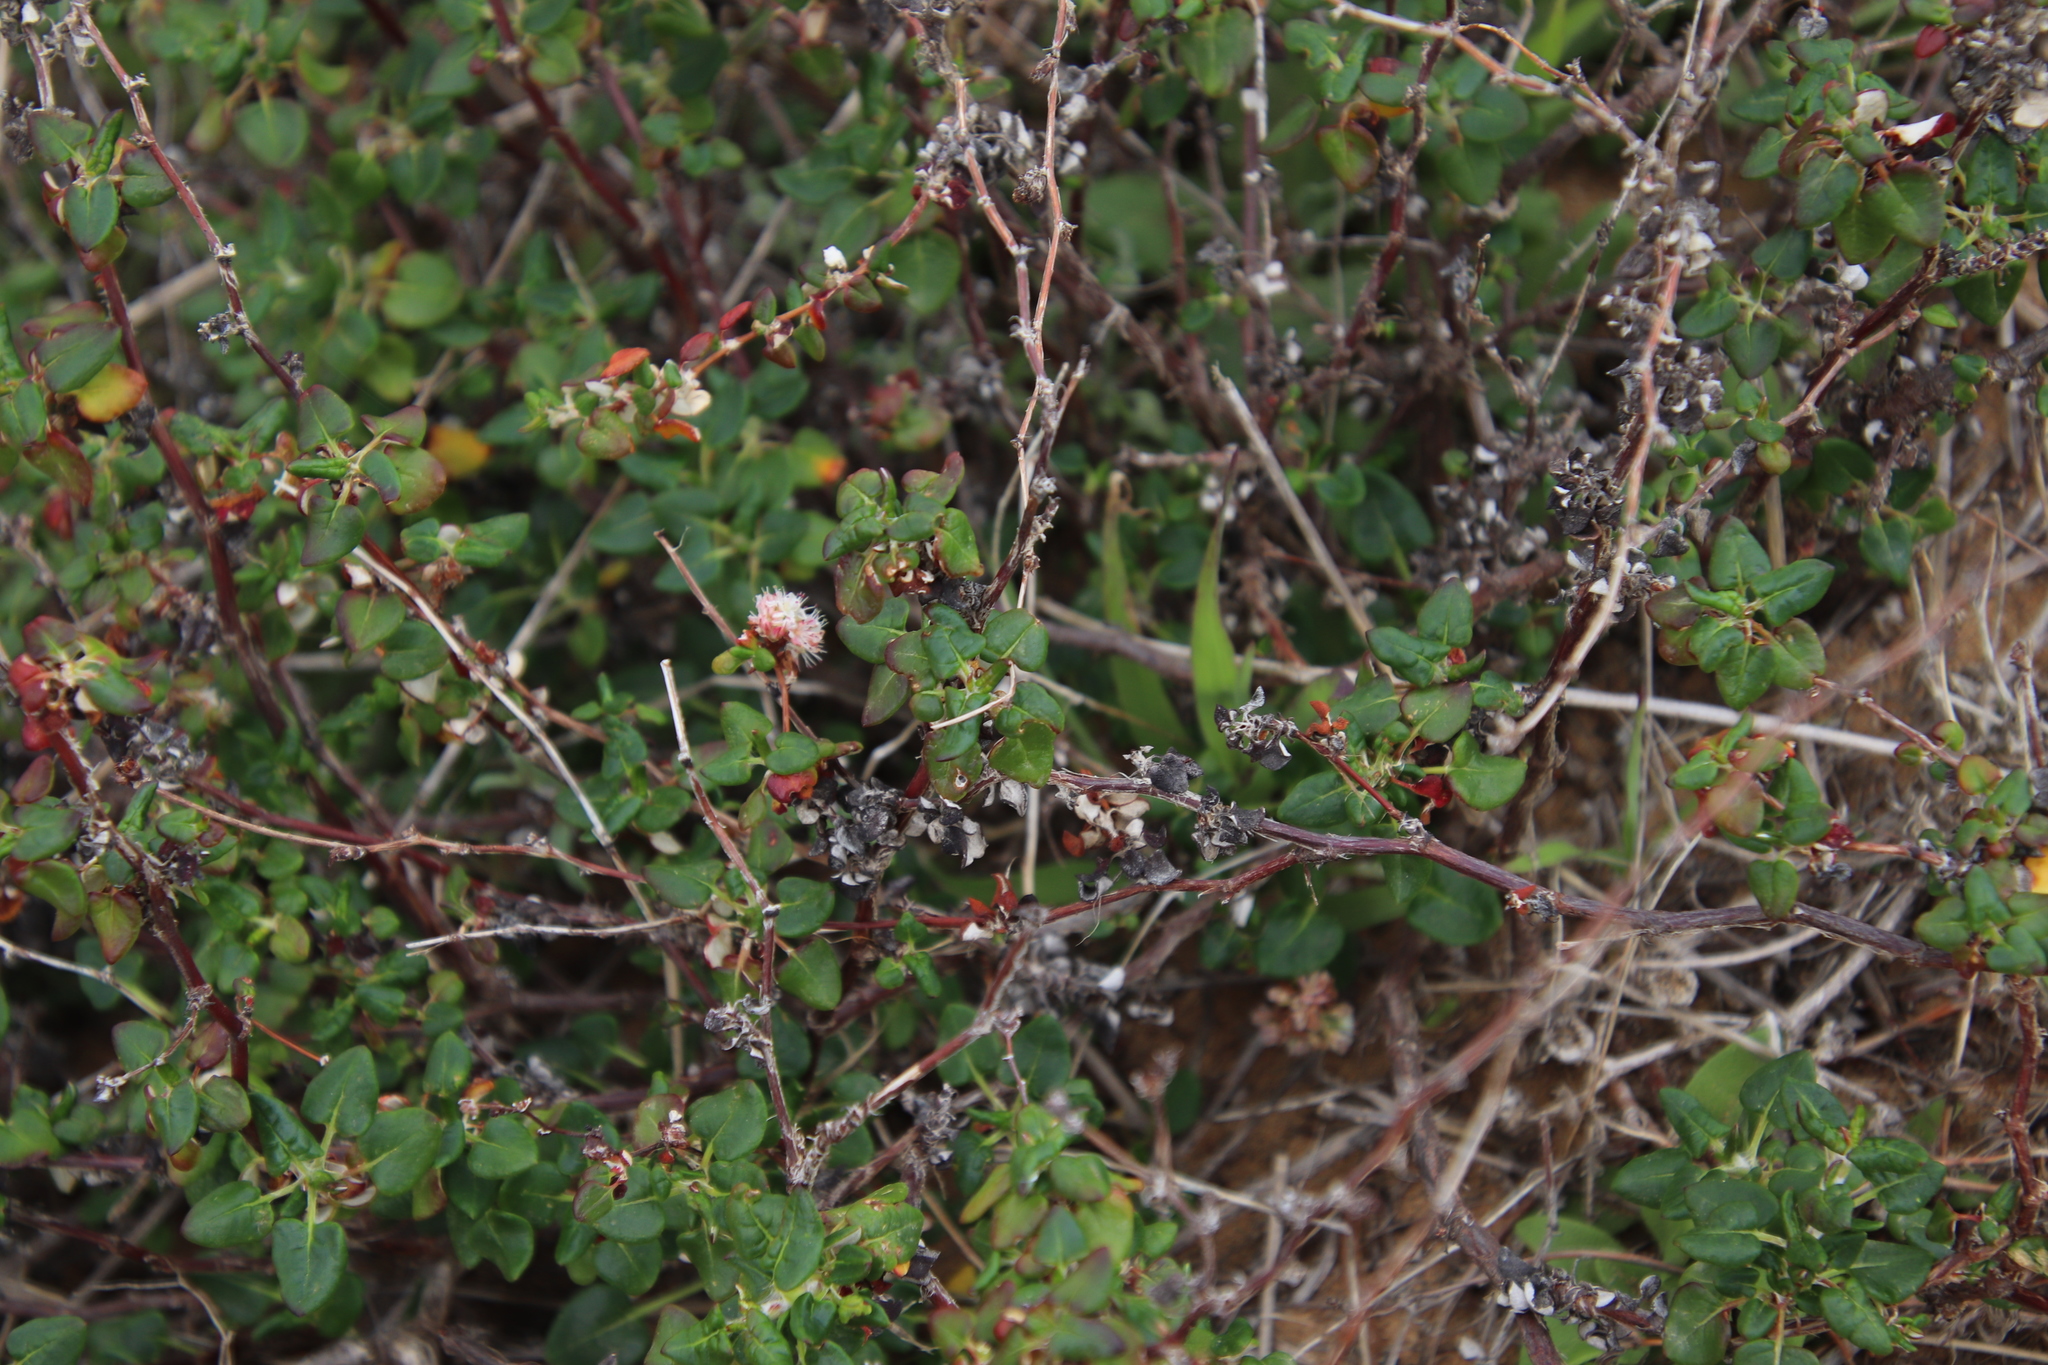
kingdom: Plantae
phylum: Tracheophyta
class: Magnoliopsida
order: Caryophyllales
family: Polygonaceae
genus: Eriogonum
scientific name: Eriogonum parvifolium
